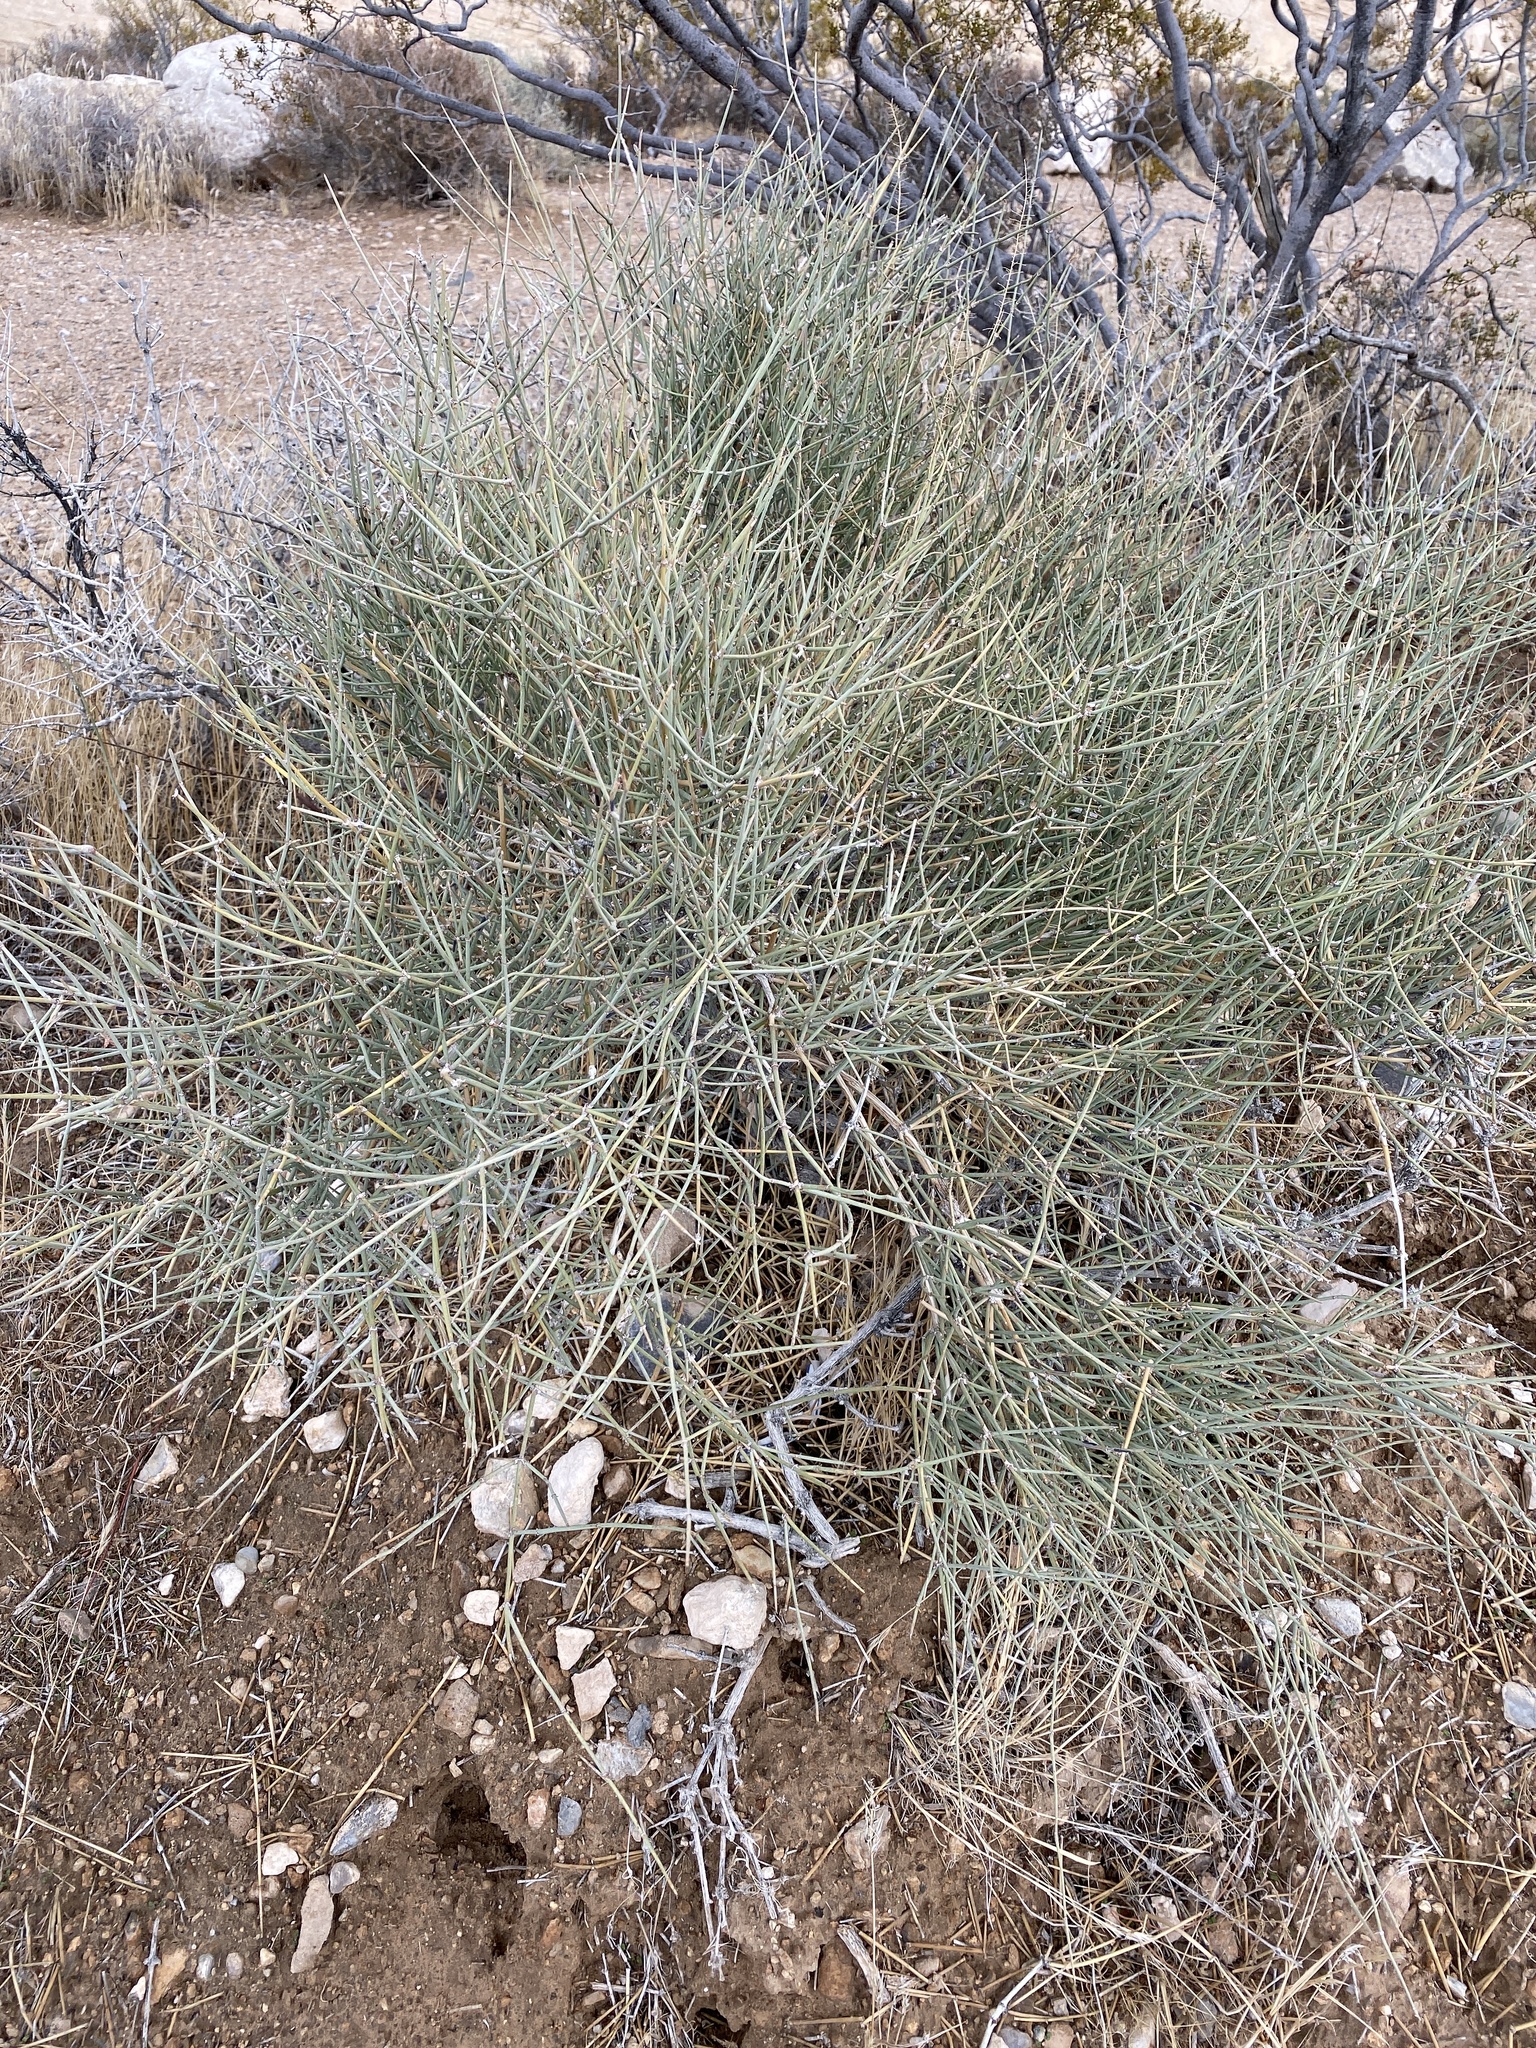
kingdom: Plantae
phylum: Tracheophyta
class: Gnetopsida
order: Ephedrales
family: Ephedraceae
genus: Ephedra
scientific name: Ephedra nevadensis
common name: Gray ephedra
